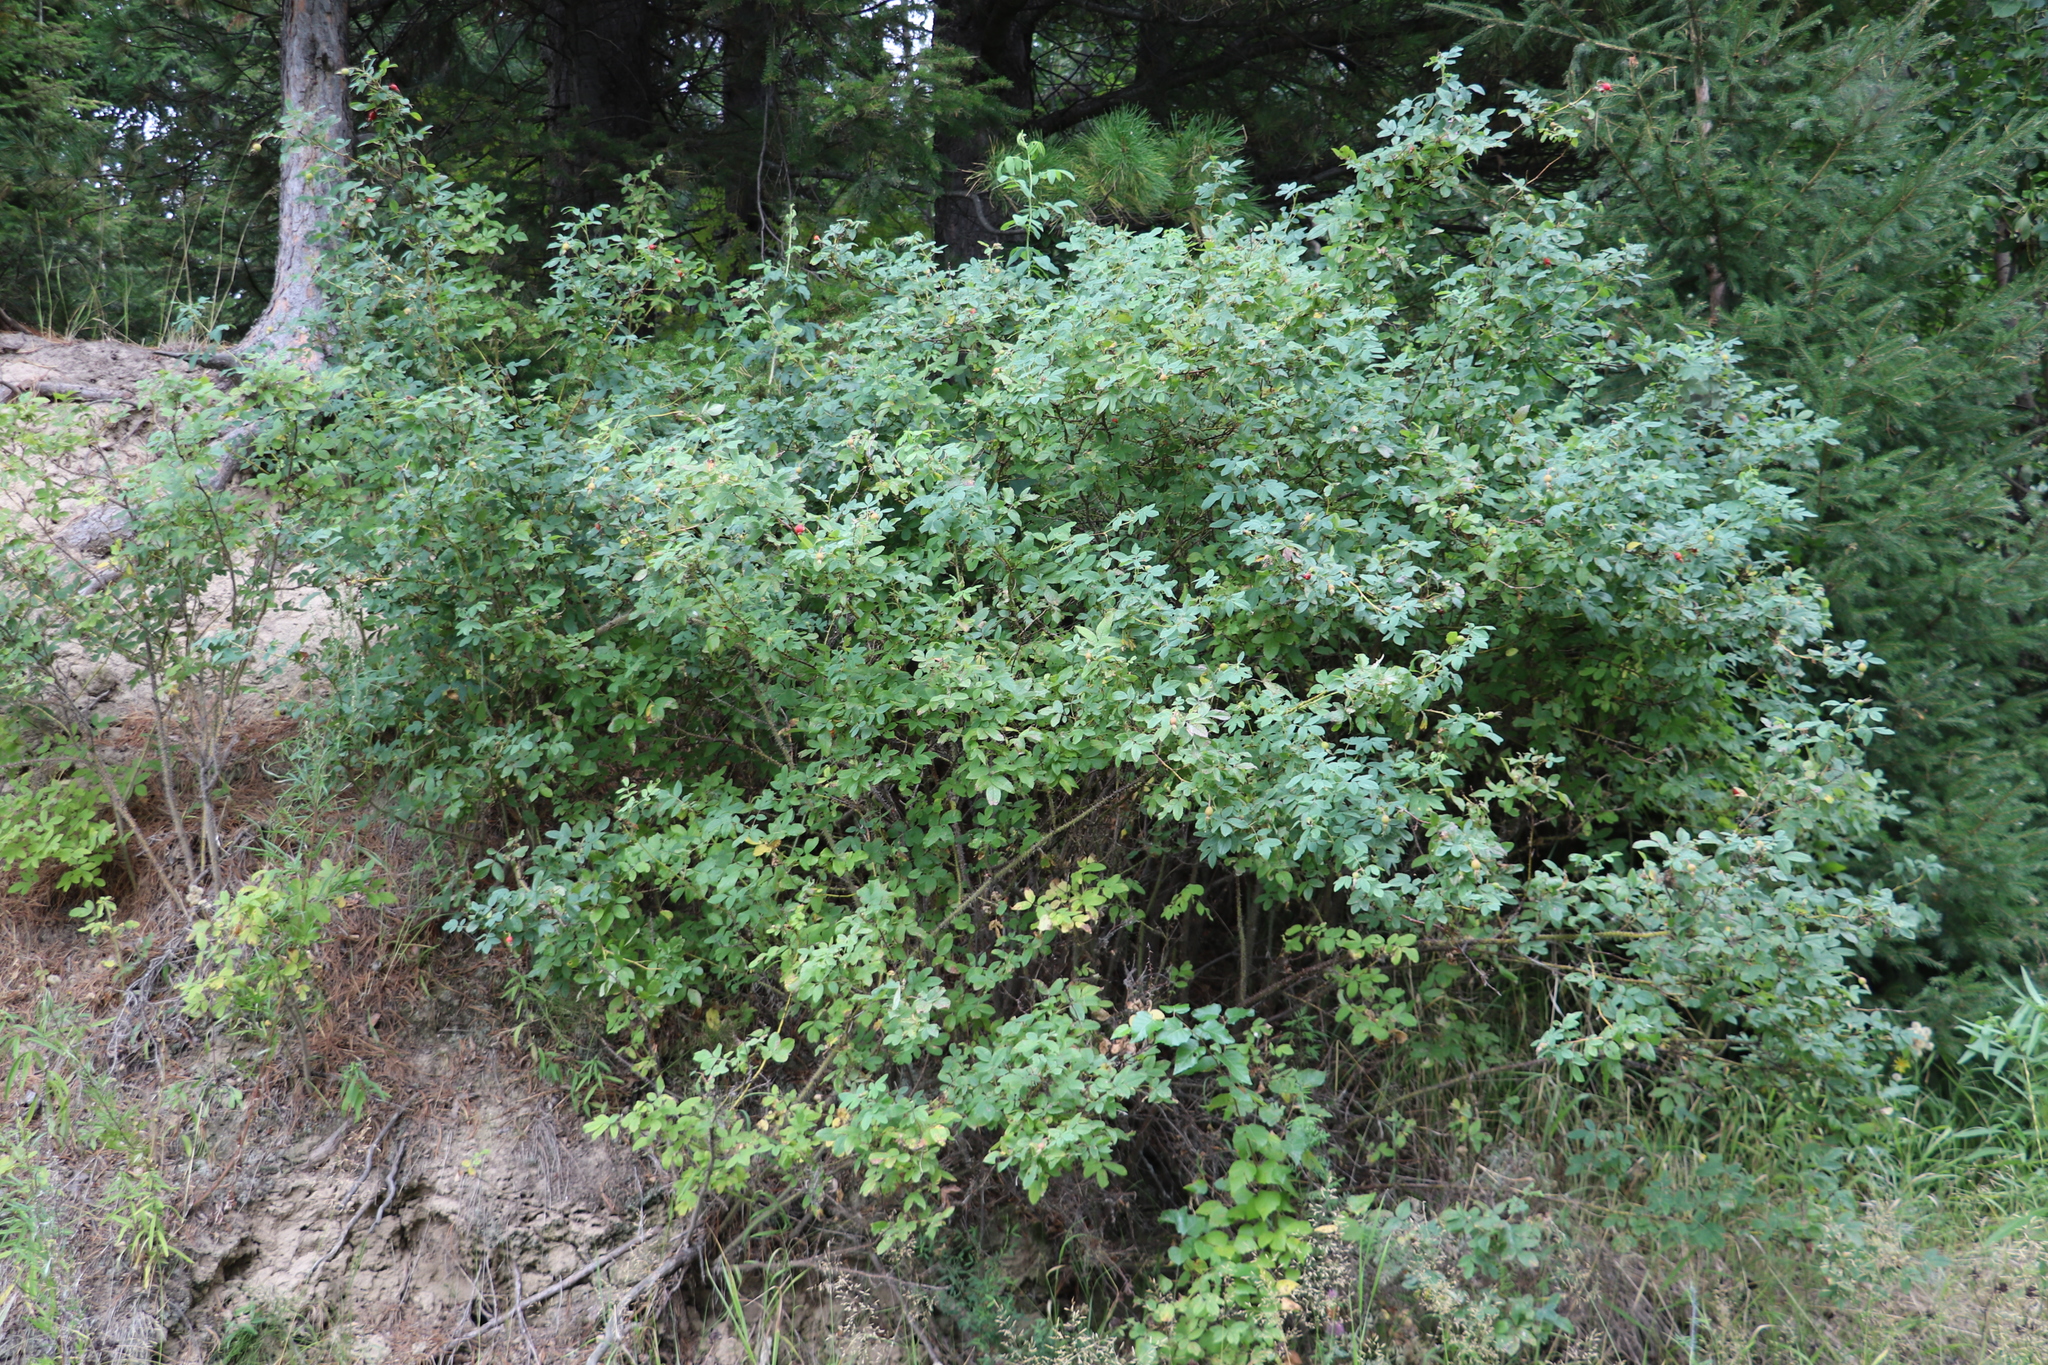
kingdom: Plantae
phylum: Tracheophyta
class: Magnoliopsida
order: Rosales
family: Rosaceae
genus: Rosa
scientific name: Rosa majalis
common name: Cinnamon rose
